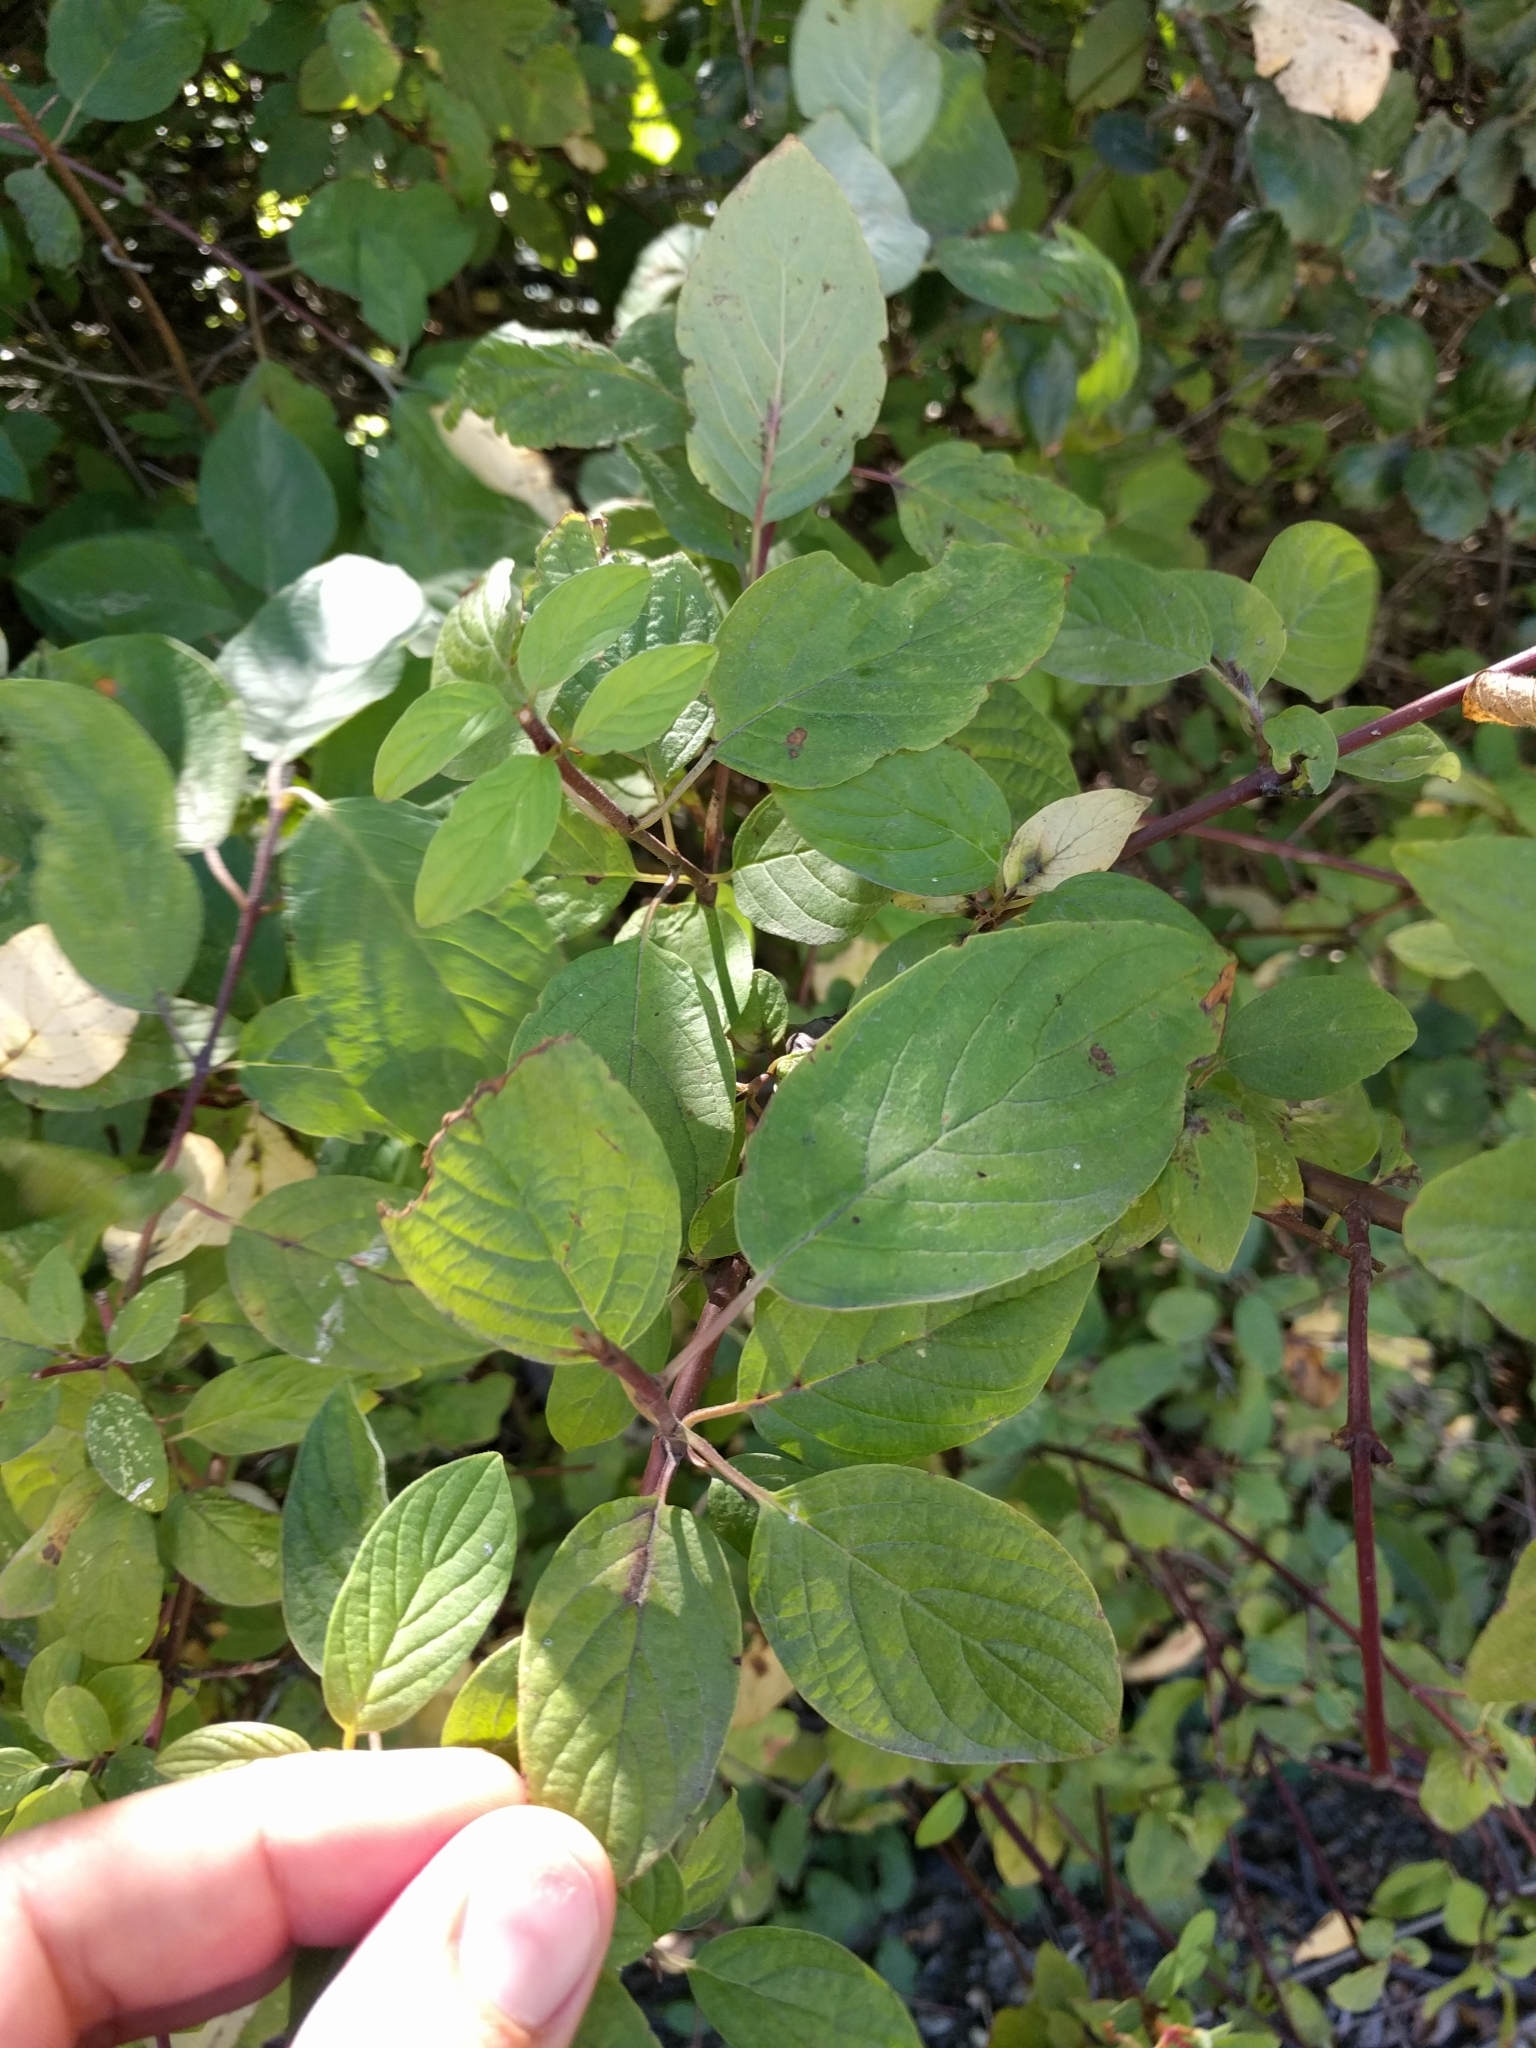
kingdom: Plantae
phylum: Tracheophyta
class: Magnoliopsida
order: Cornales
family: Cornaceae
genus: Cornus
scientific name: Cornus sericea
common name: Red-osier dogwood
